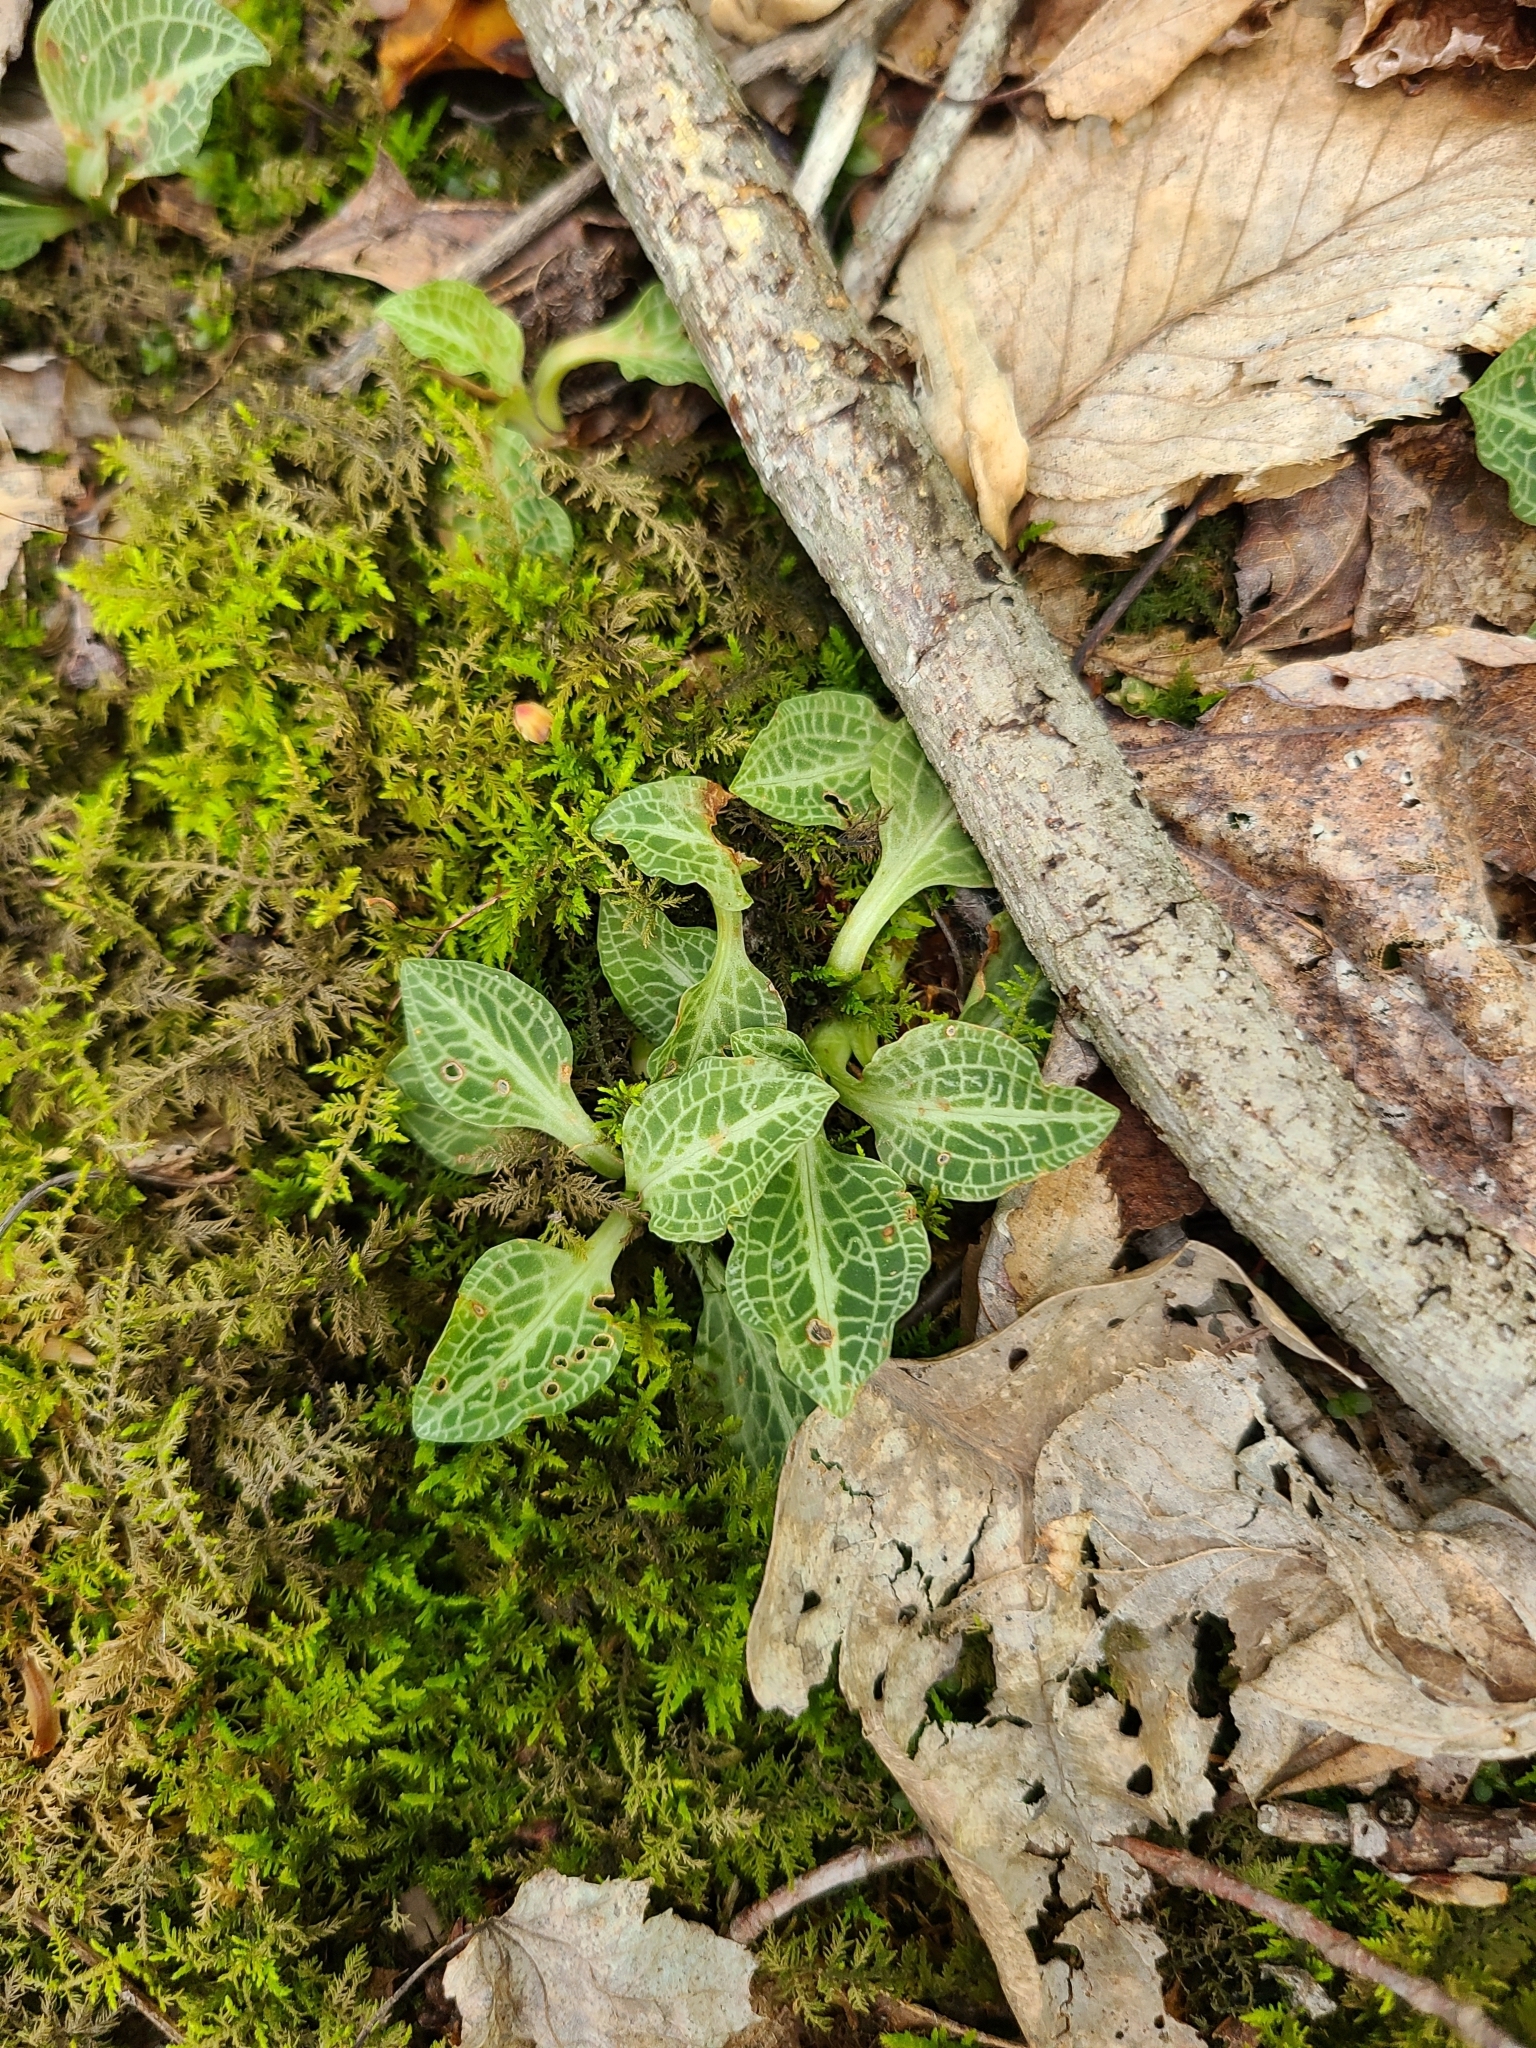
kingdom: Plantae
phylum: Tracheophyta
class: Liliopsida
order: Asparagales
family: Orchidaceae
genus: Goodyera
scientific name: Goodyera pubescens
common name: Downy rattlesnake-plantain
